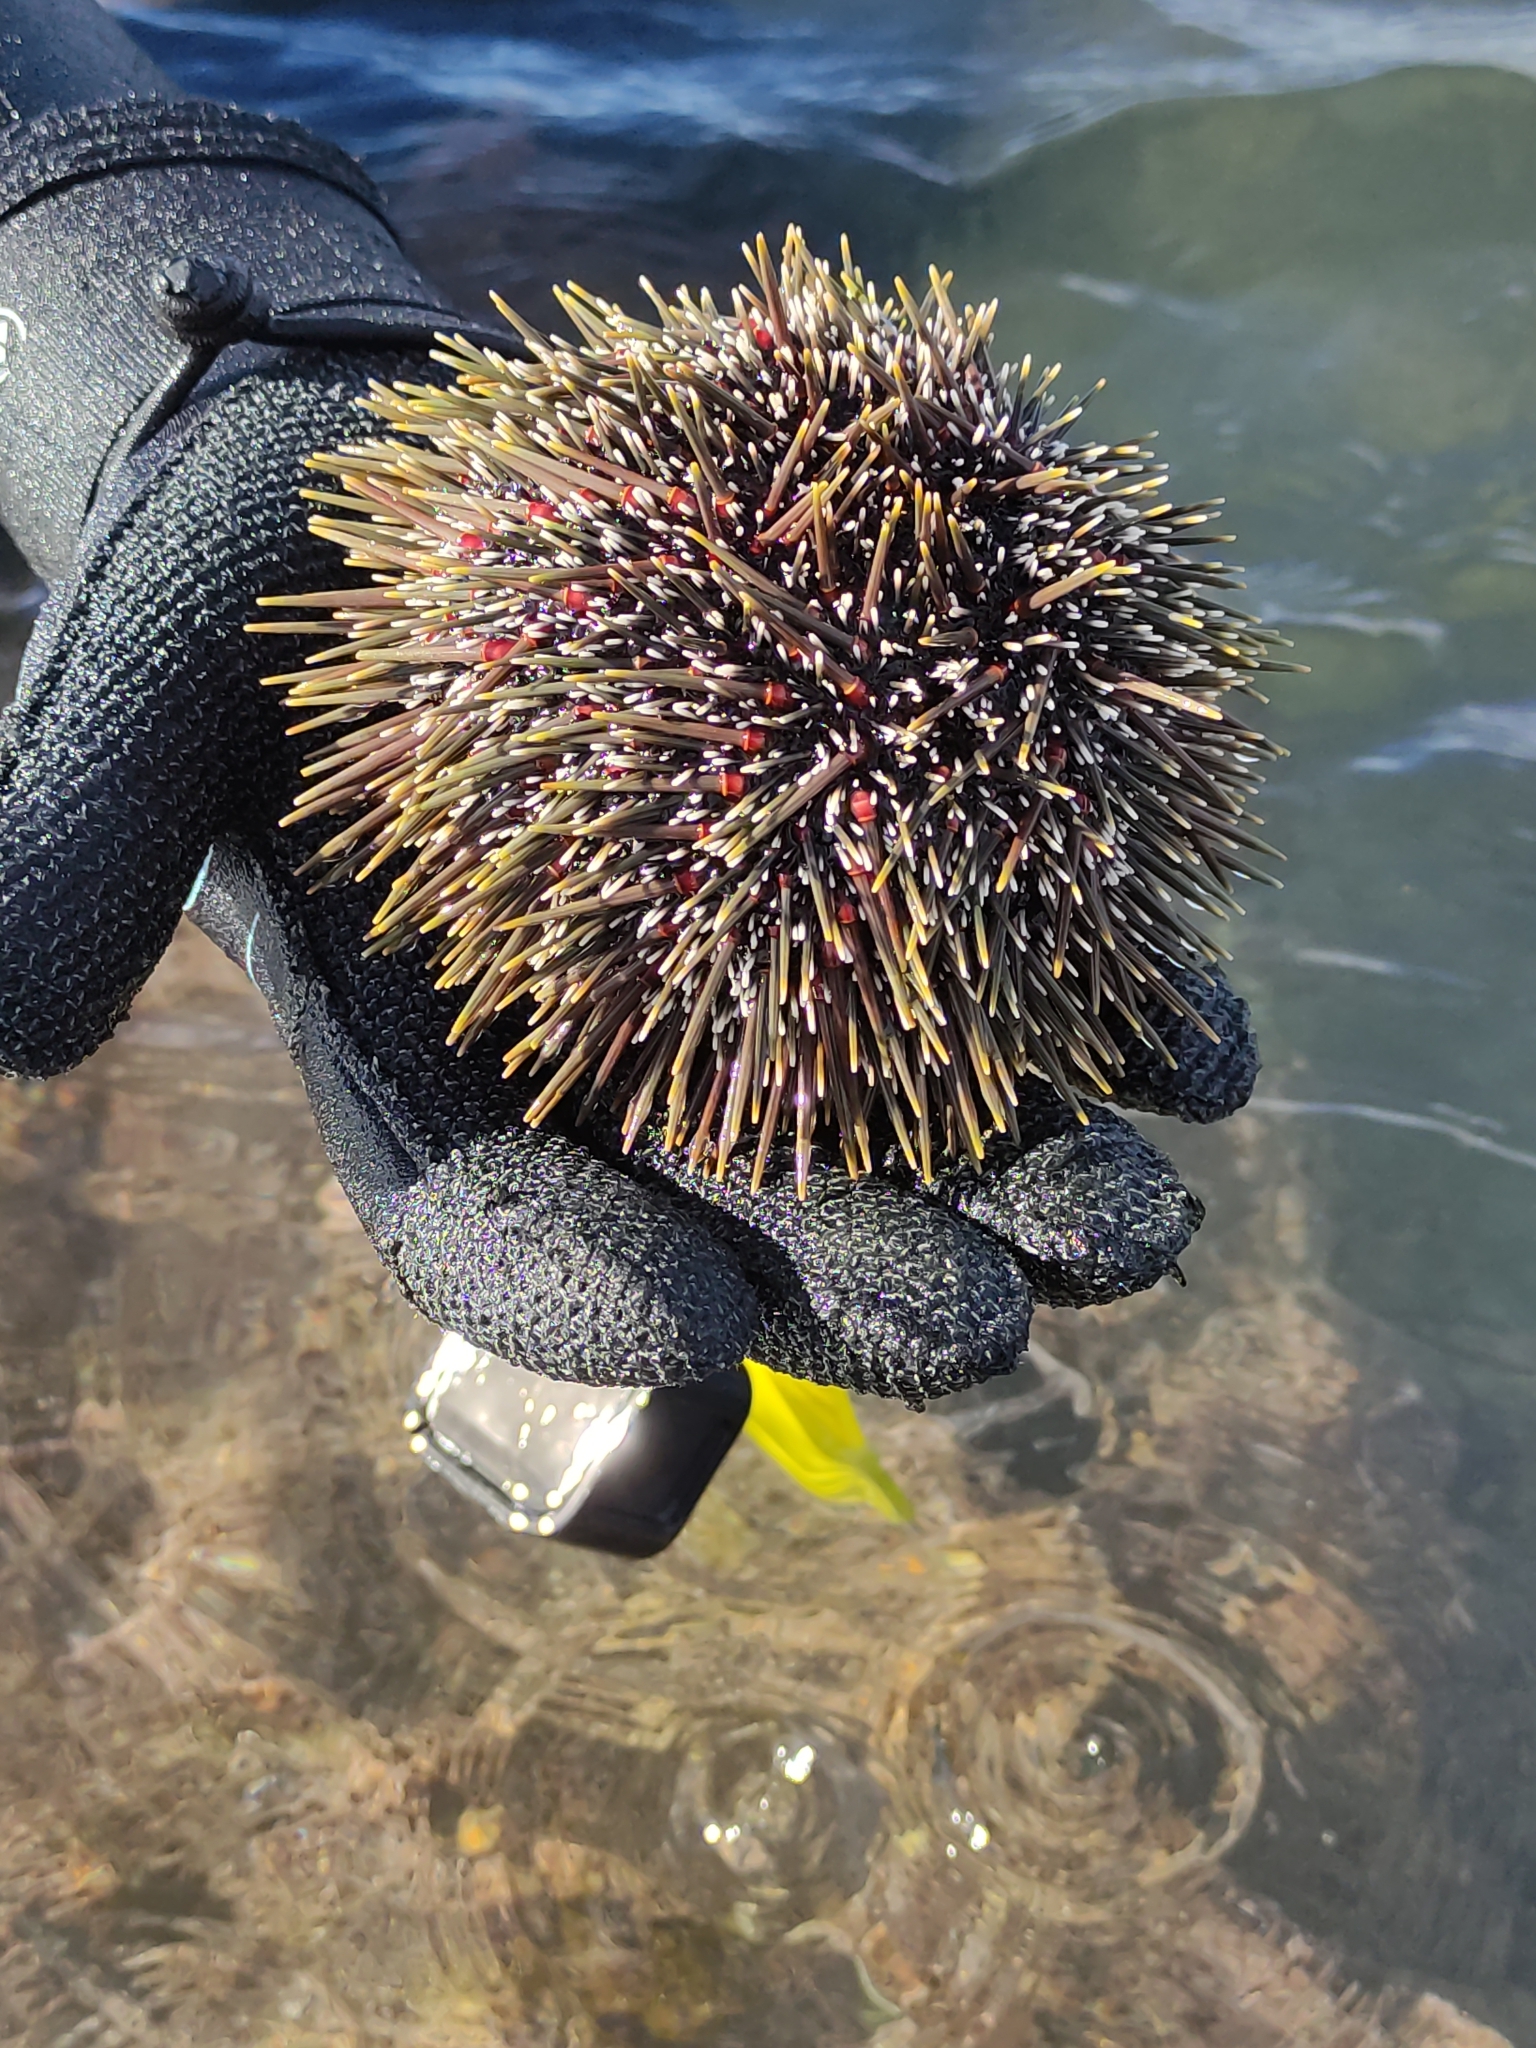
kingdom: Animalia
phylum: Echinodermata
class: Echinoidea
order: Camarodonta
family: Echinometridae
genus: Evechinus
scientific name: Evechinus chloroticus
